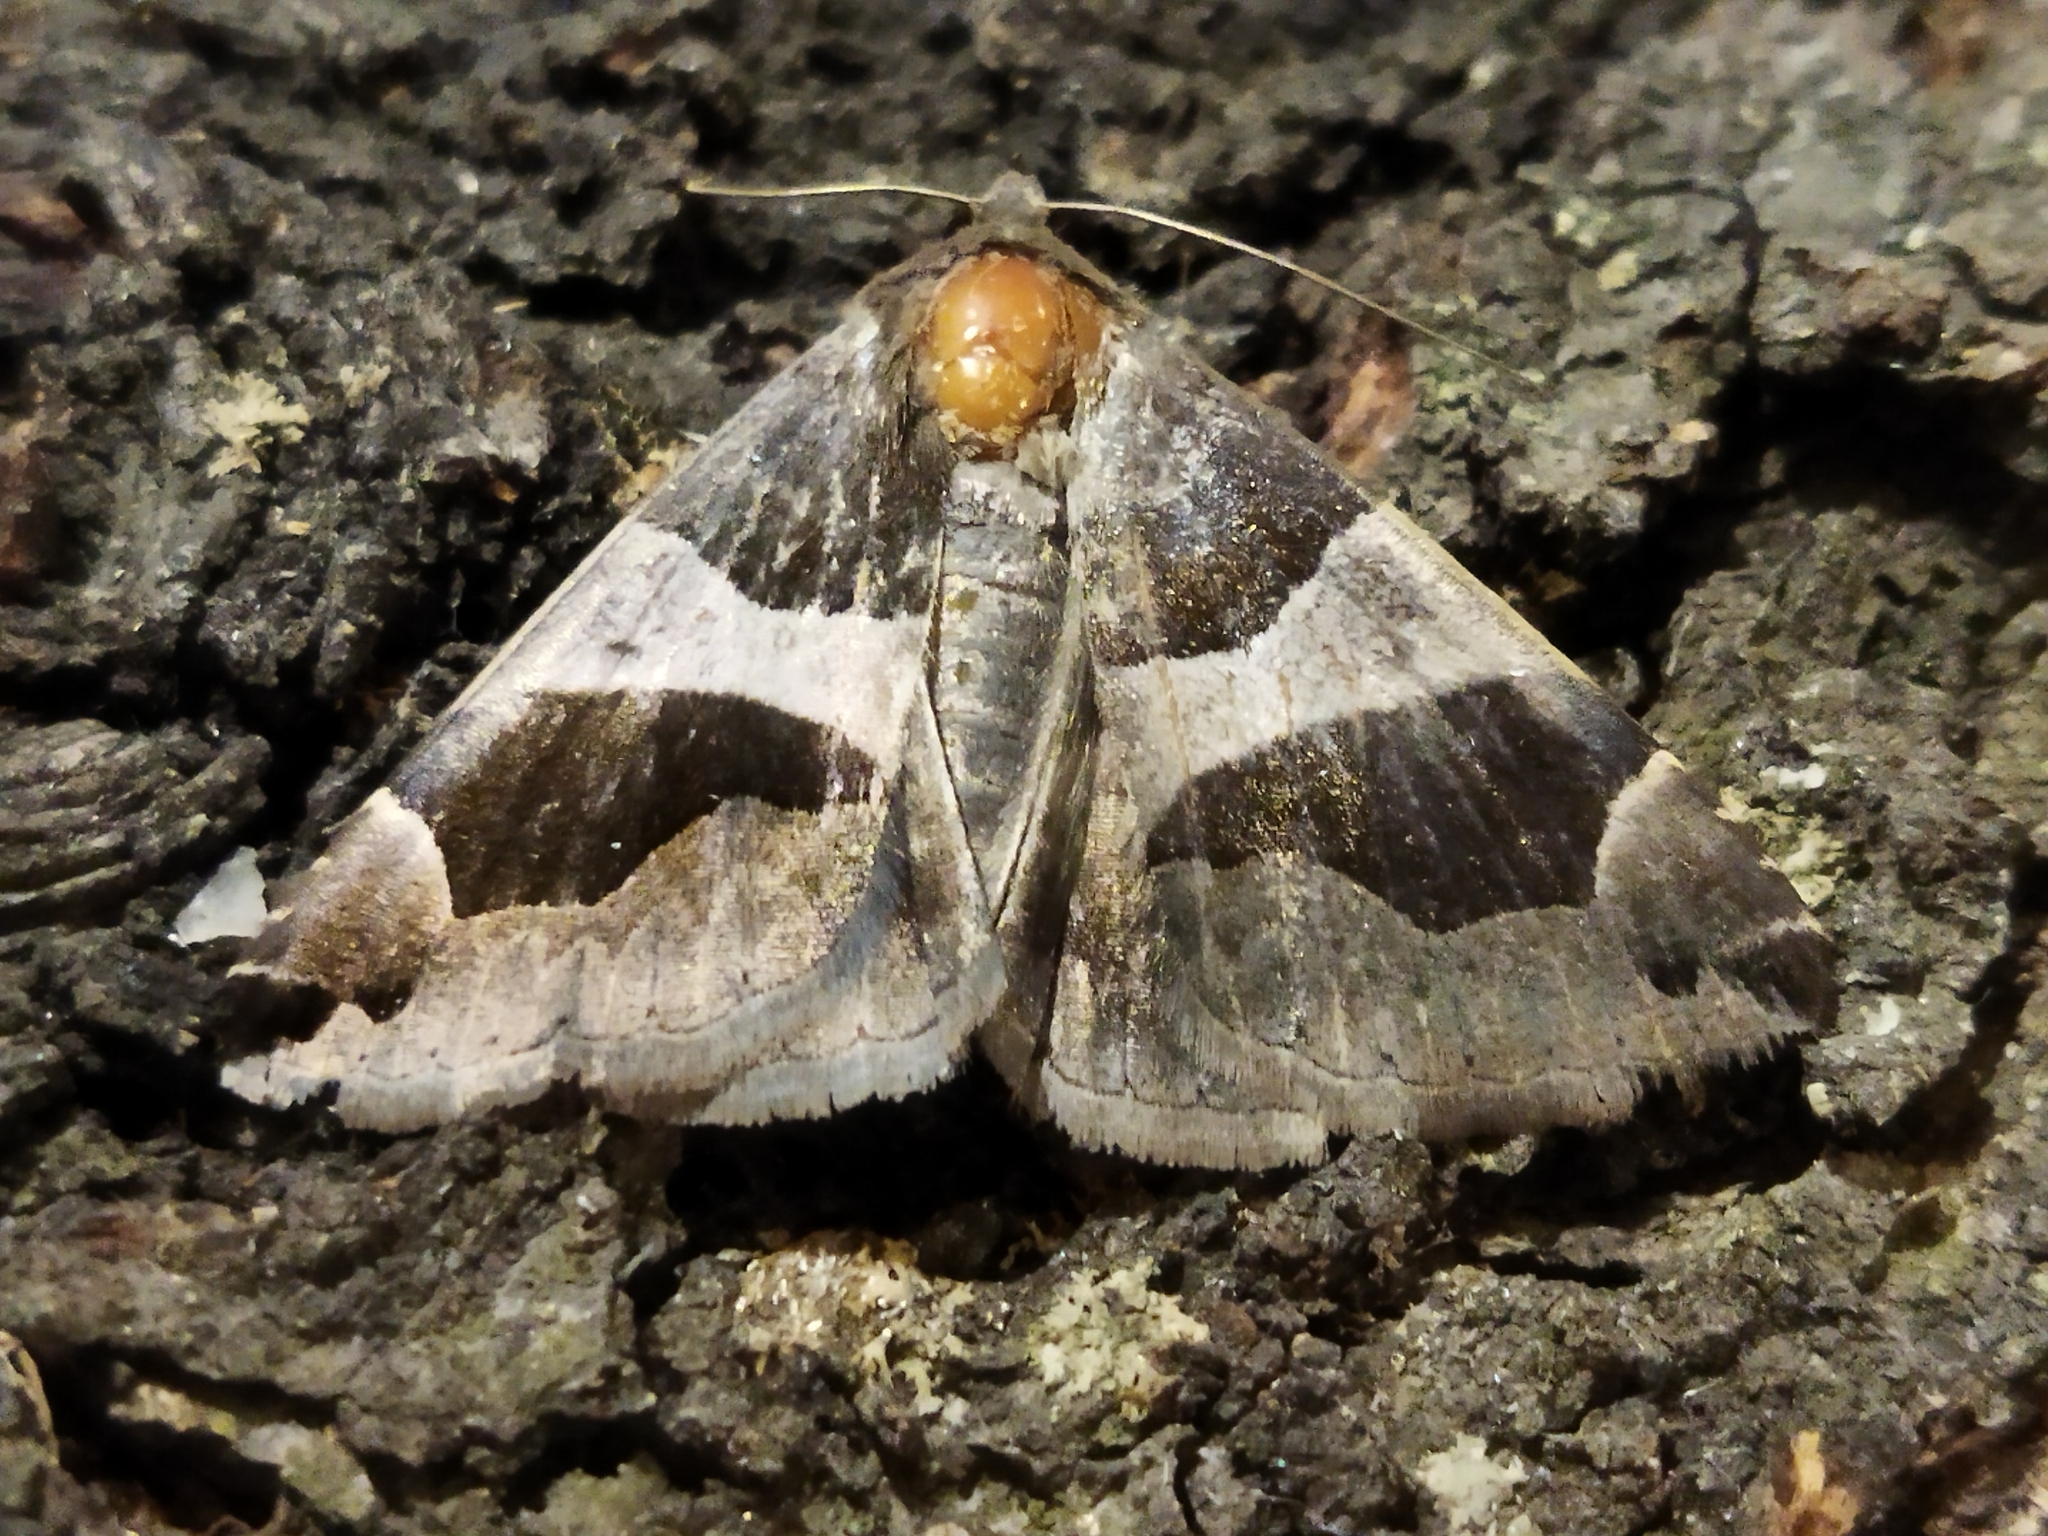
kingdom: Animalia
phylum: Arthropoda
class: Insecta
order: Lepidoptera
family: Erebidae
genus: Dysgonia
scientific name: Dysgonia algira
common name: Passenger
